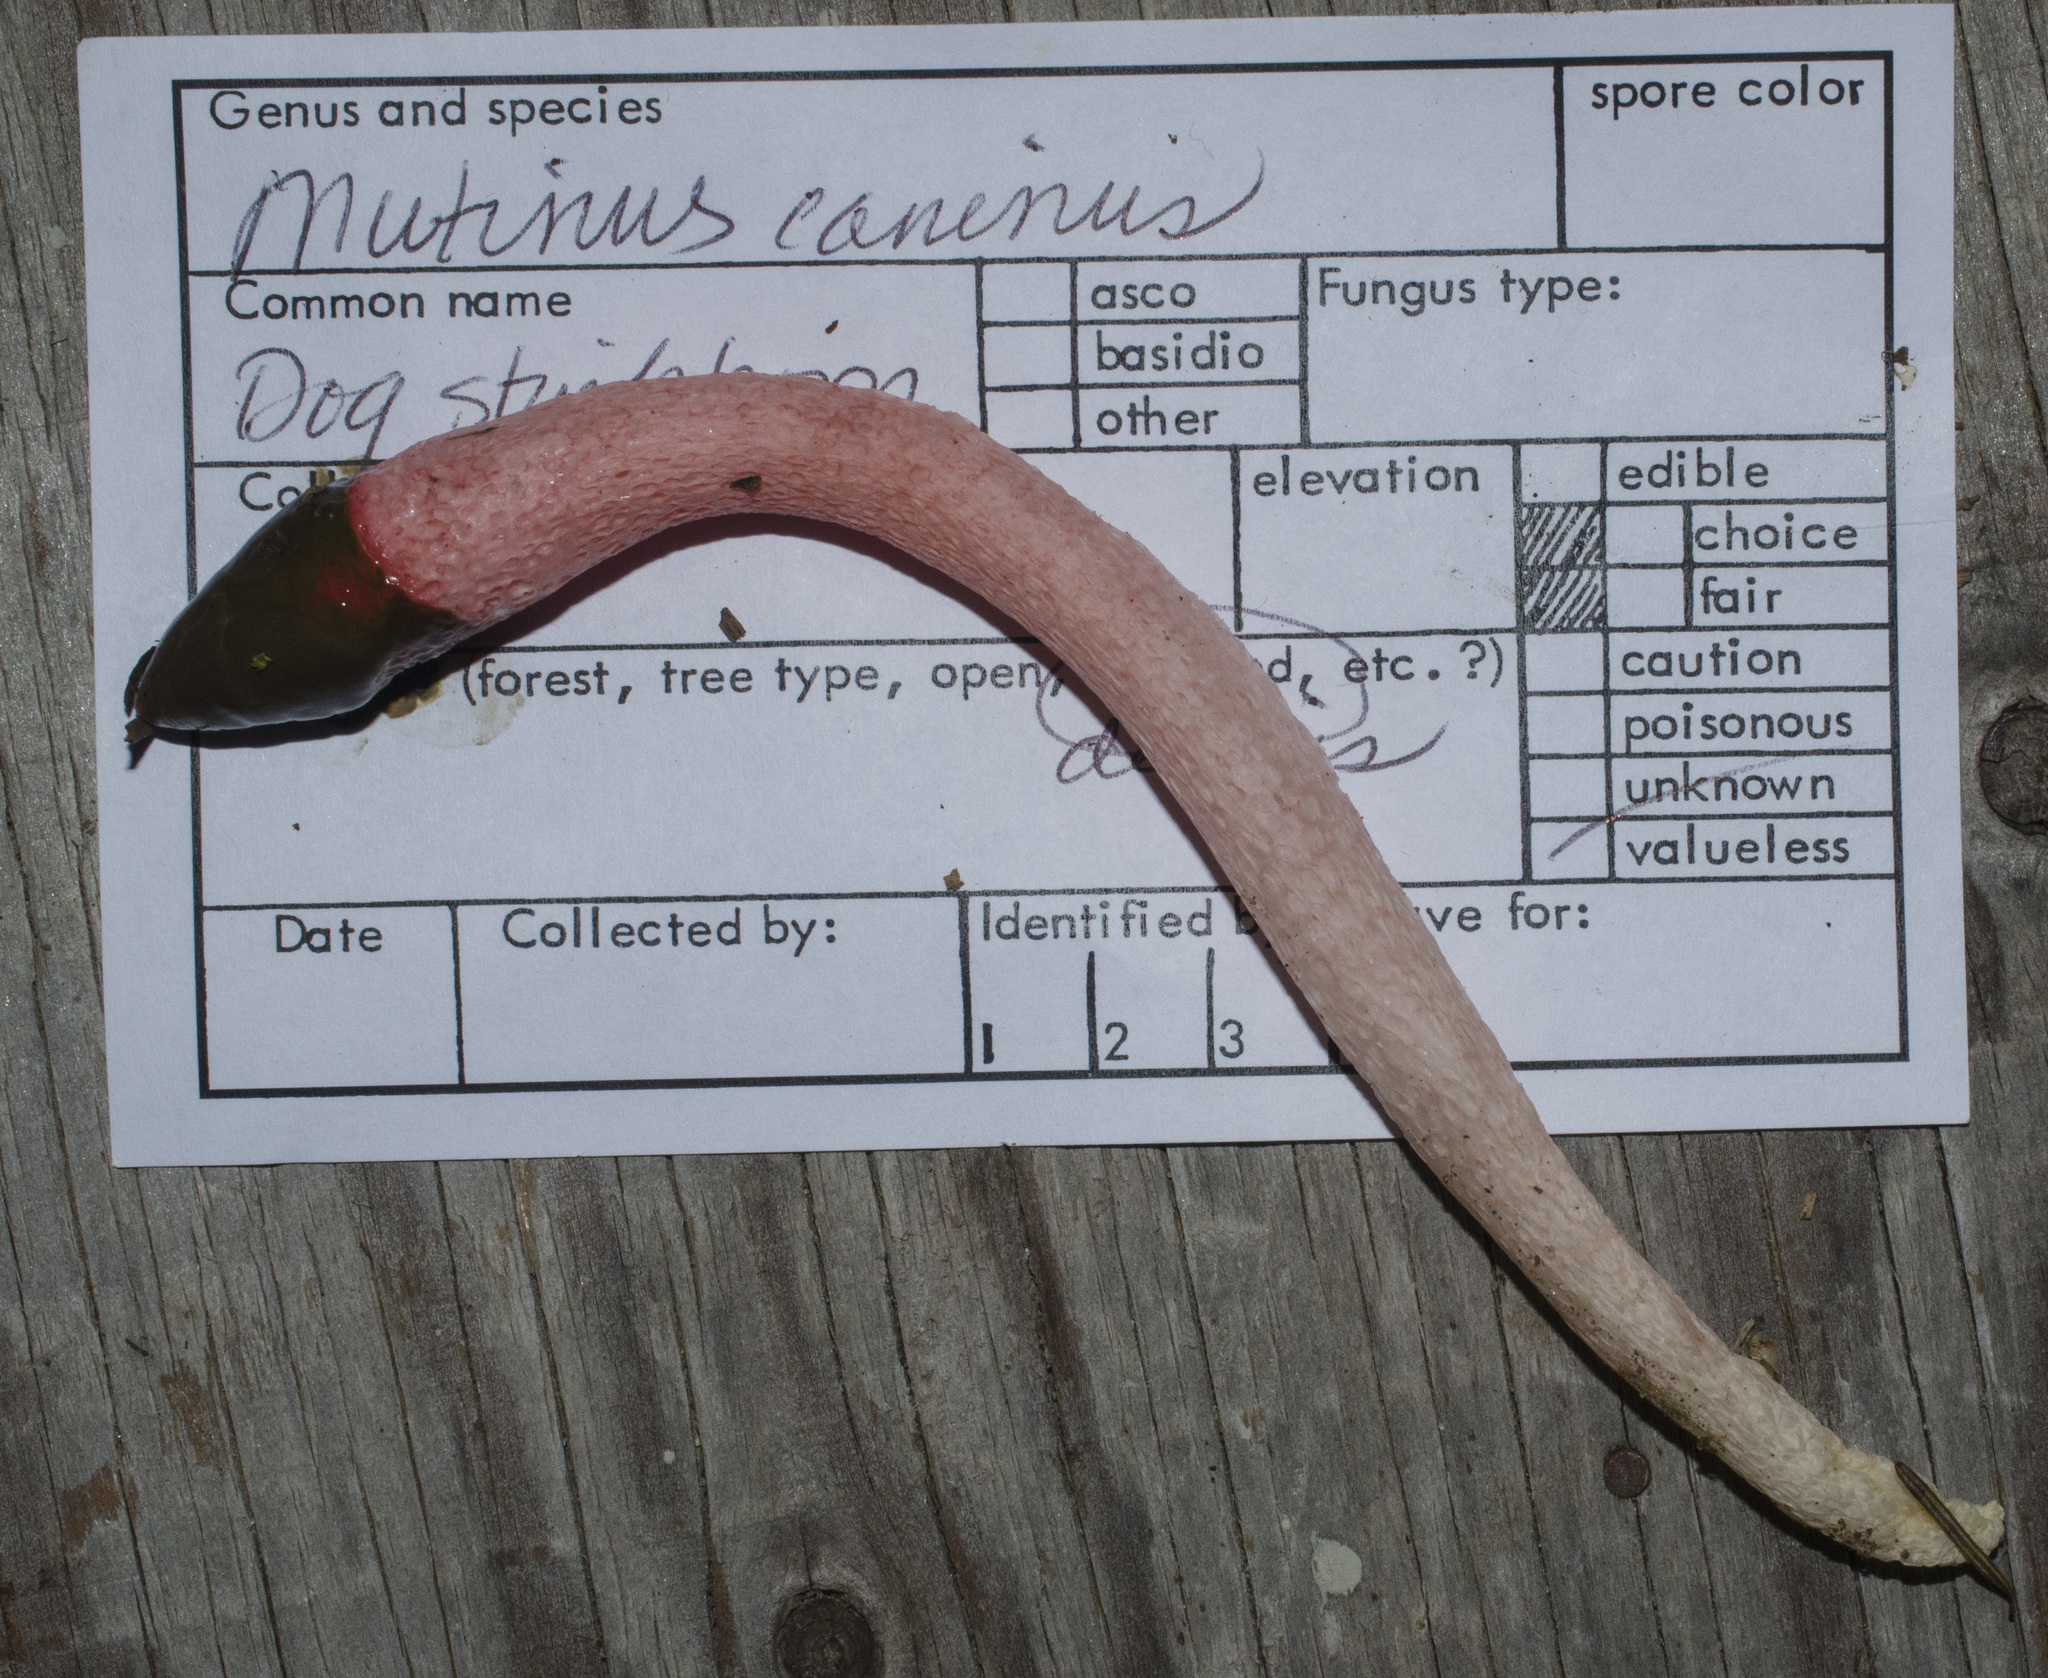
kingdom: Fungi
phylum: Basidiomycota
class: Agaricomycetes
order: Phallales
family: Phallaceae
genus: Mutinus
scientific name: Mutinus ravenelii
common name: Red stinkhorn
